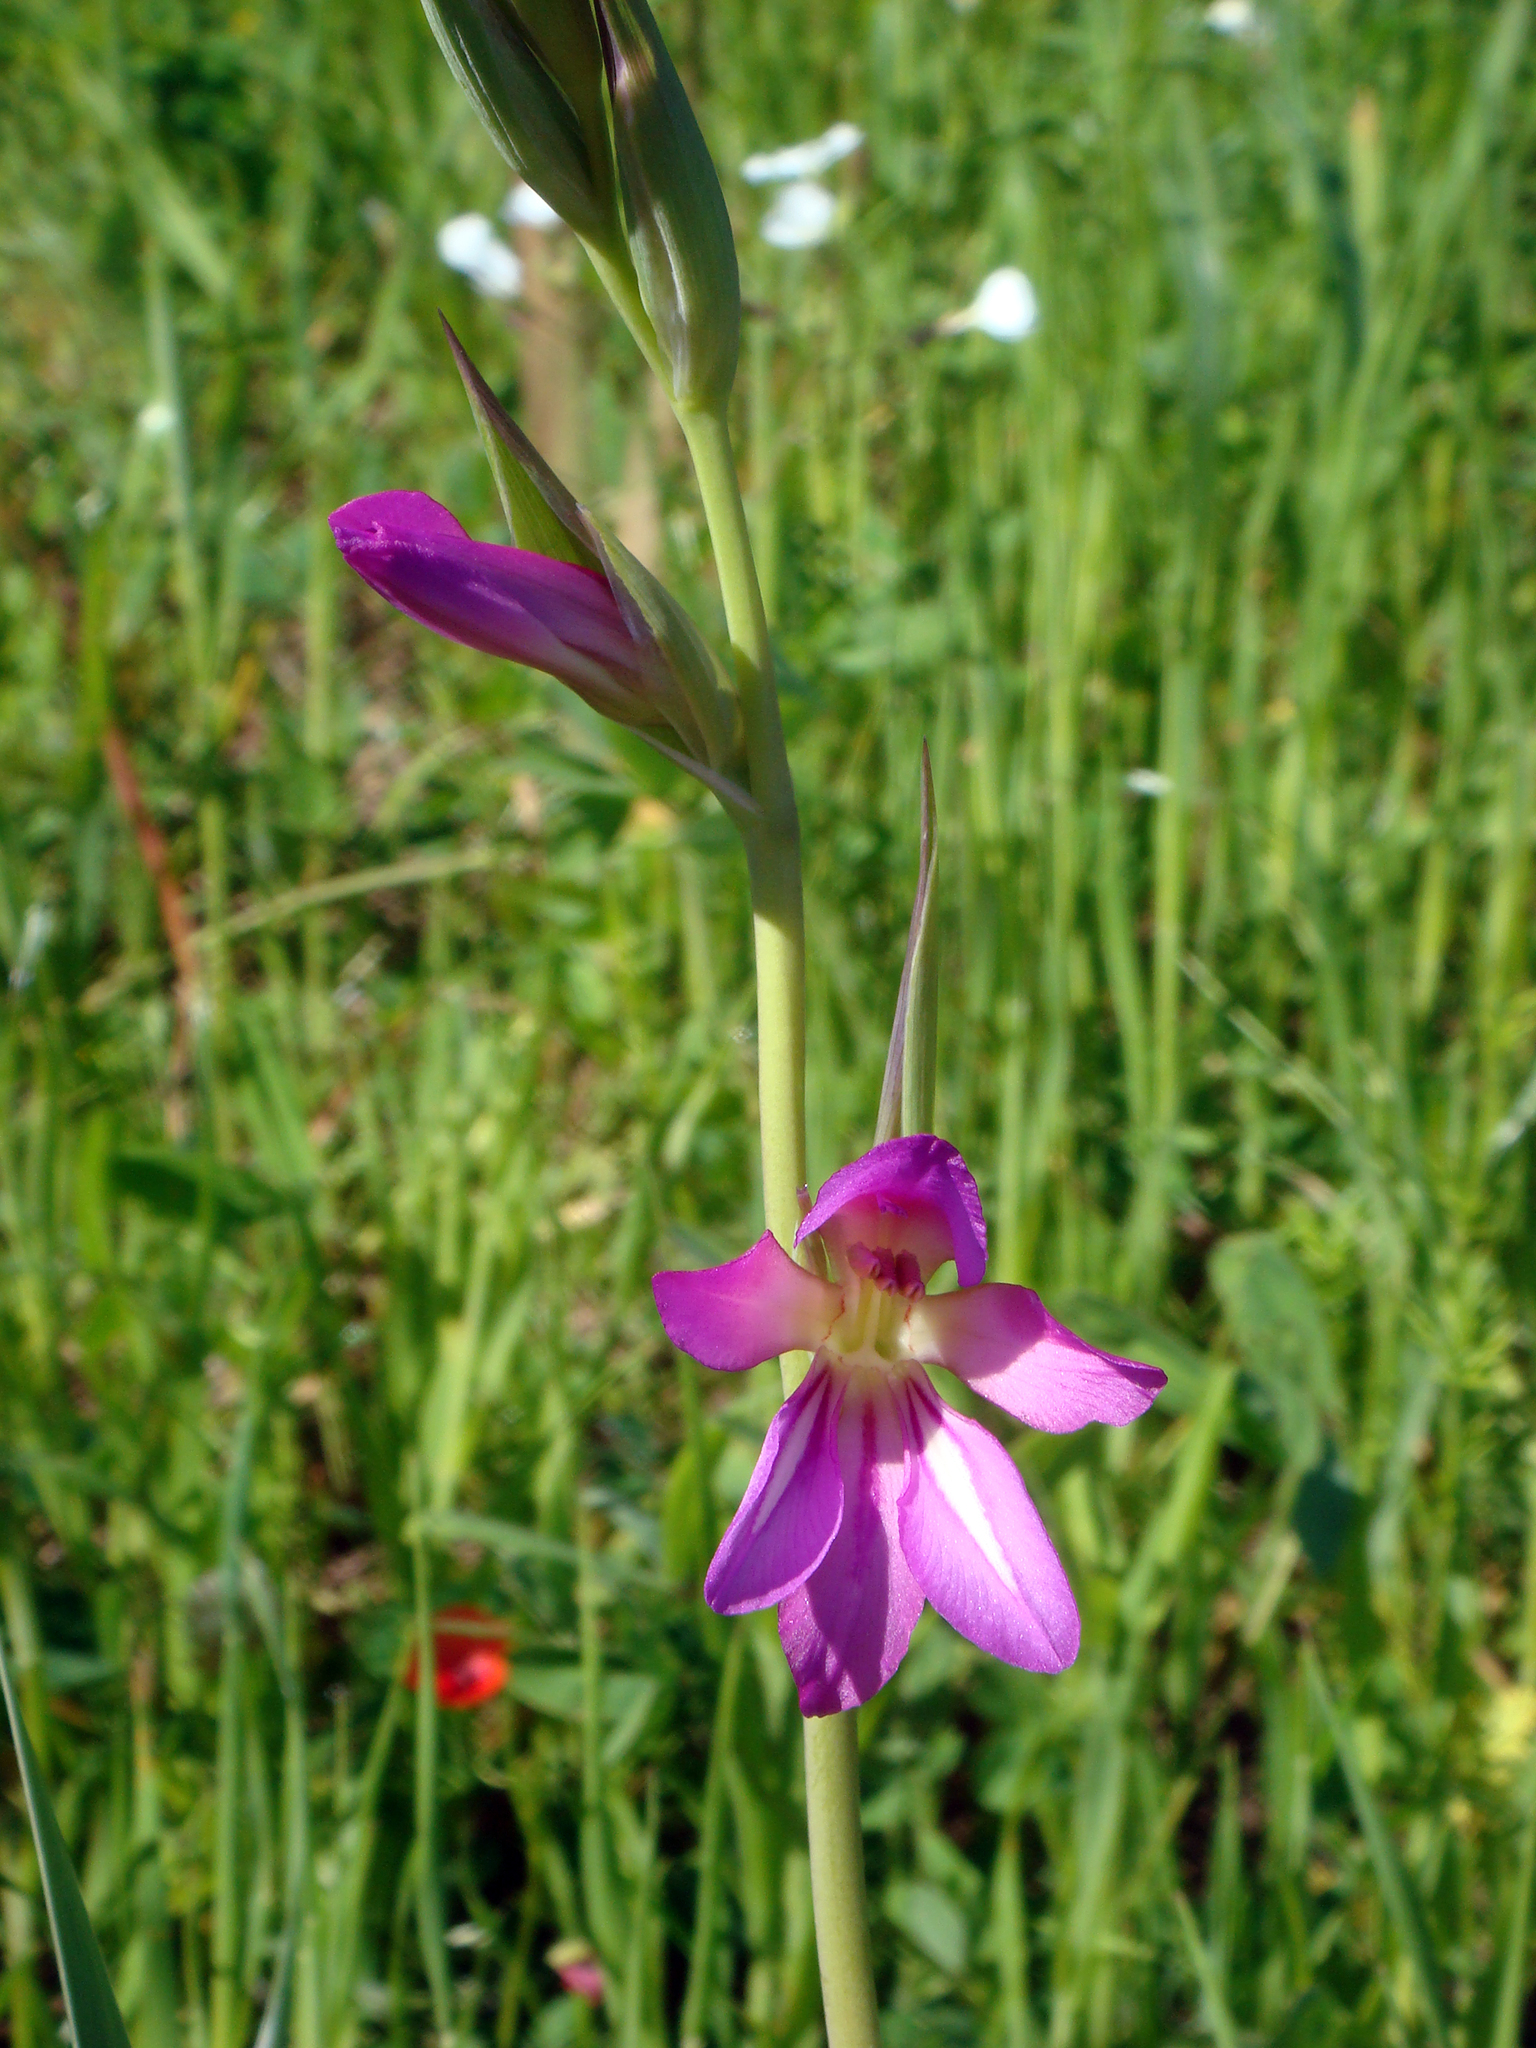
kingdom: Plantae
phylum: Tracheophyta
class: Liliopsida
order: Asparagales
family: Iridaceae
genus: Gladiolus
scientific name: Gladiolus byzantinus
